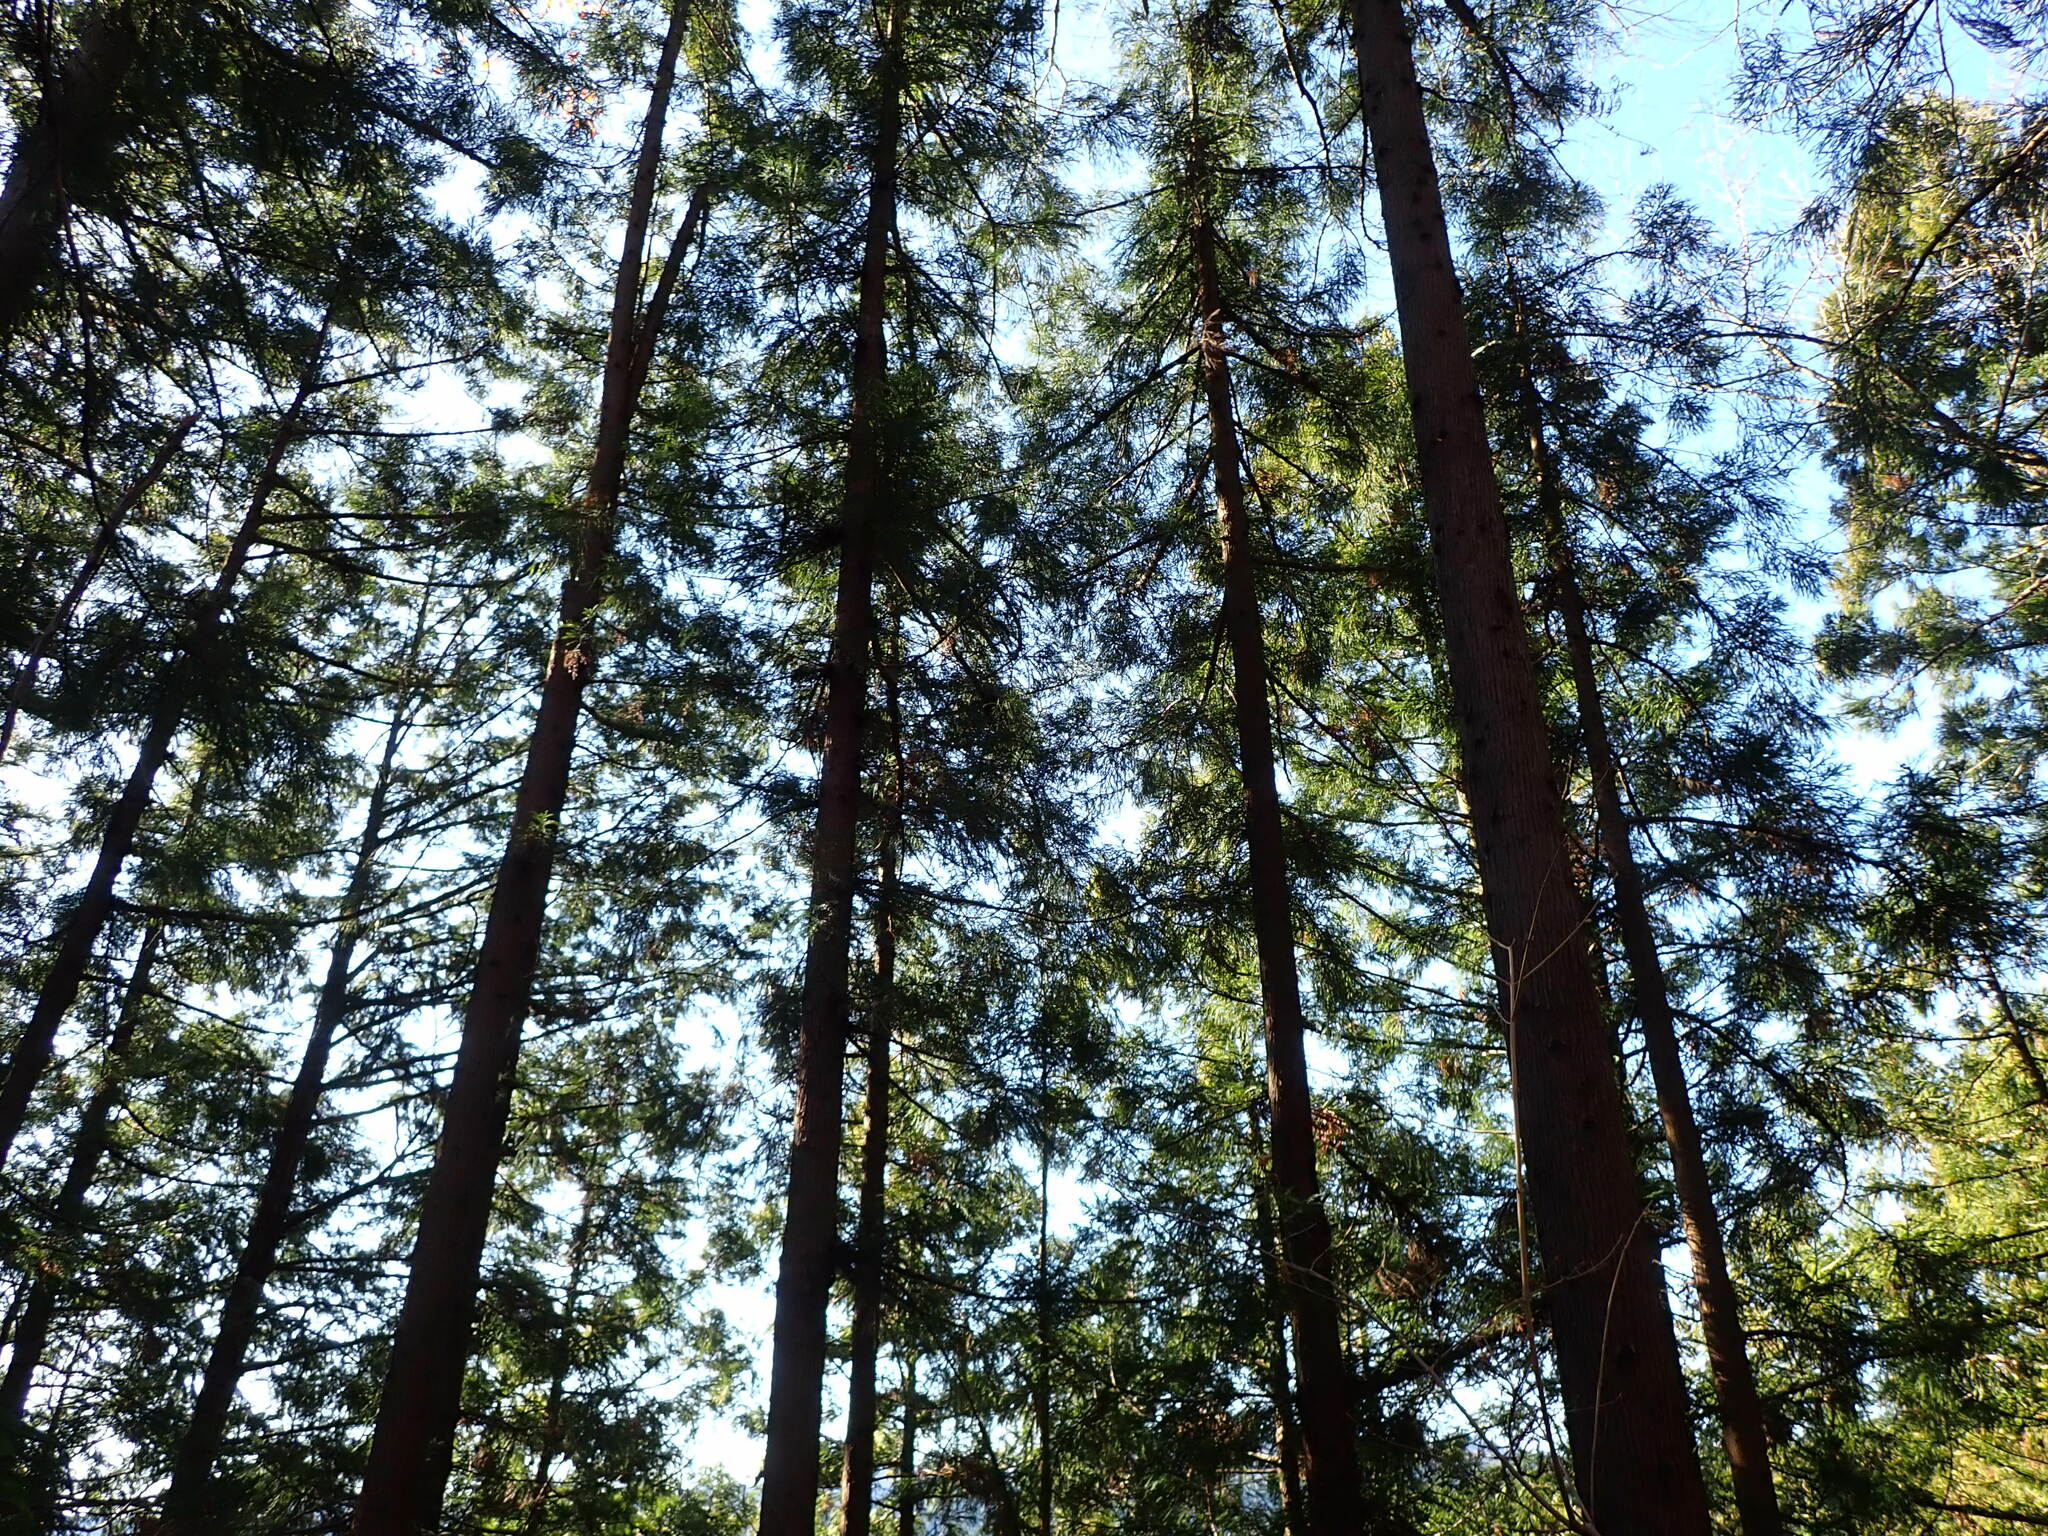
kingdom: Plantae
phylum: Tracheophyta
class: Pinopsida
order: Pinales
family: Cupressaceae
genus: Cryptomeria
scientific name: Cryptomeria japonica
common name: Japanese cedar
